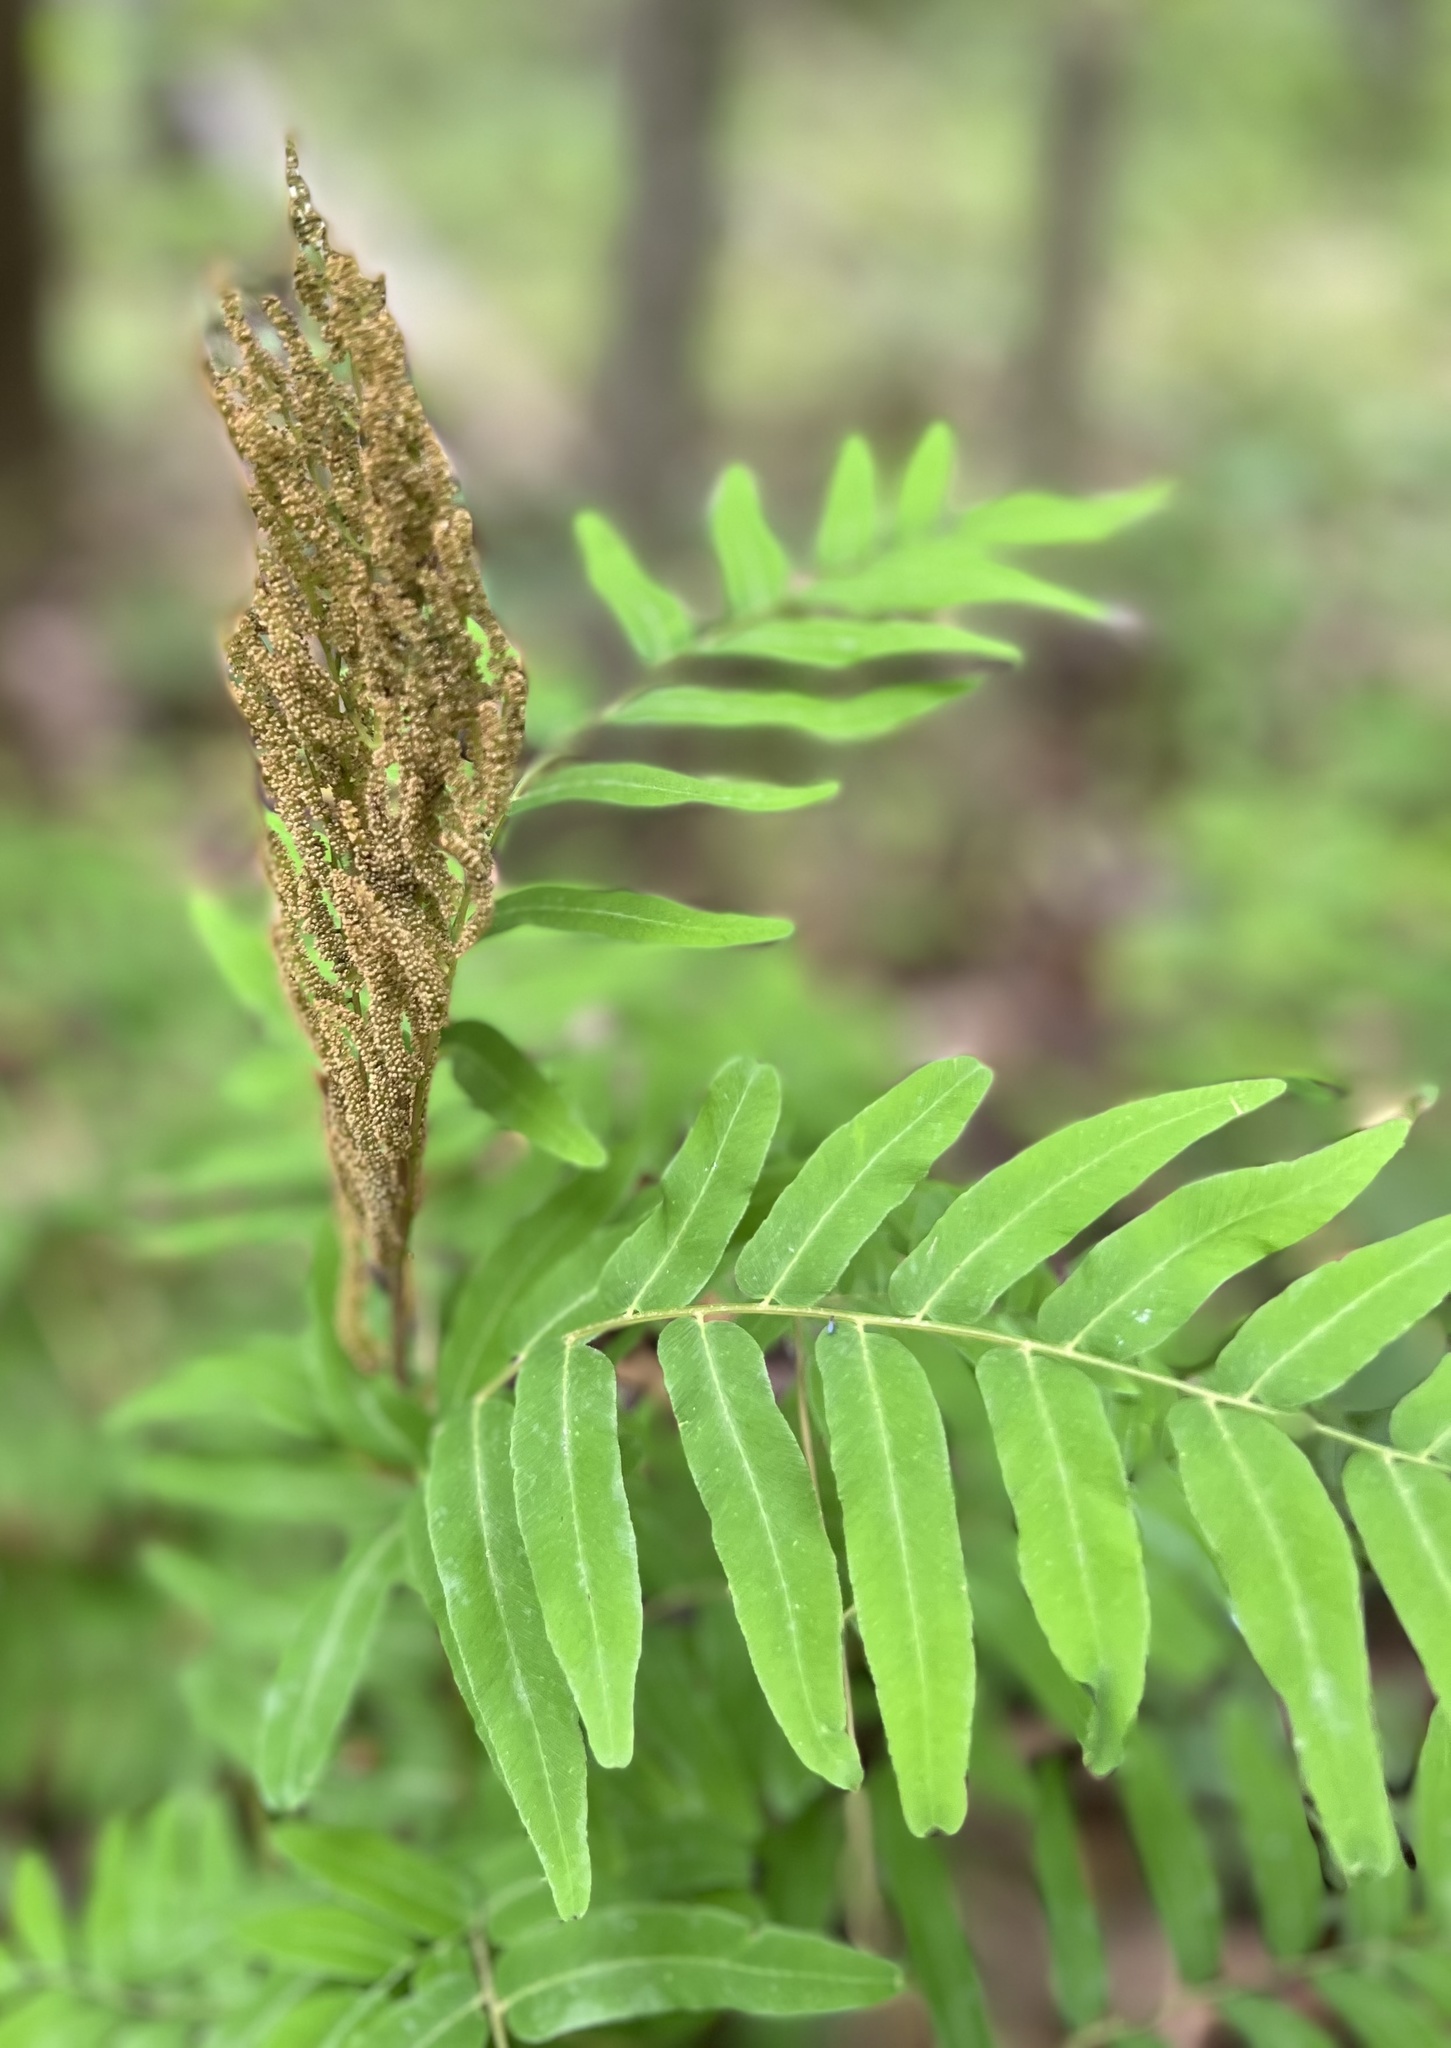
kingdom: Plantae
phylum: Tracheophyta
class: Polypodiopsida
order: Osmundales
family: Osmundaceae
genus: Osmunda
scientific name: Osmunda spectabilis
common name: American royal fern
